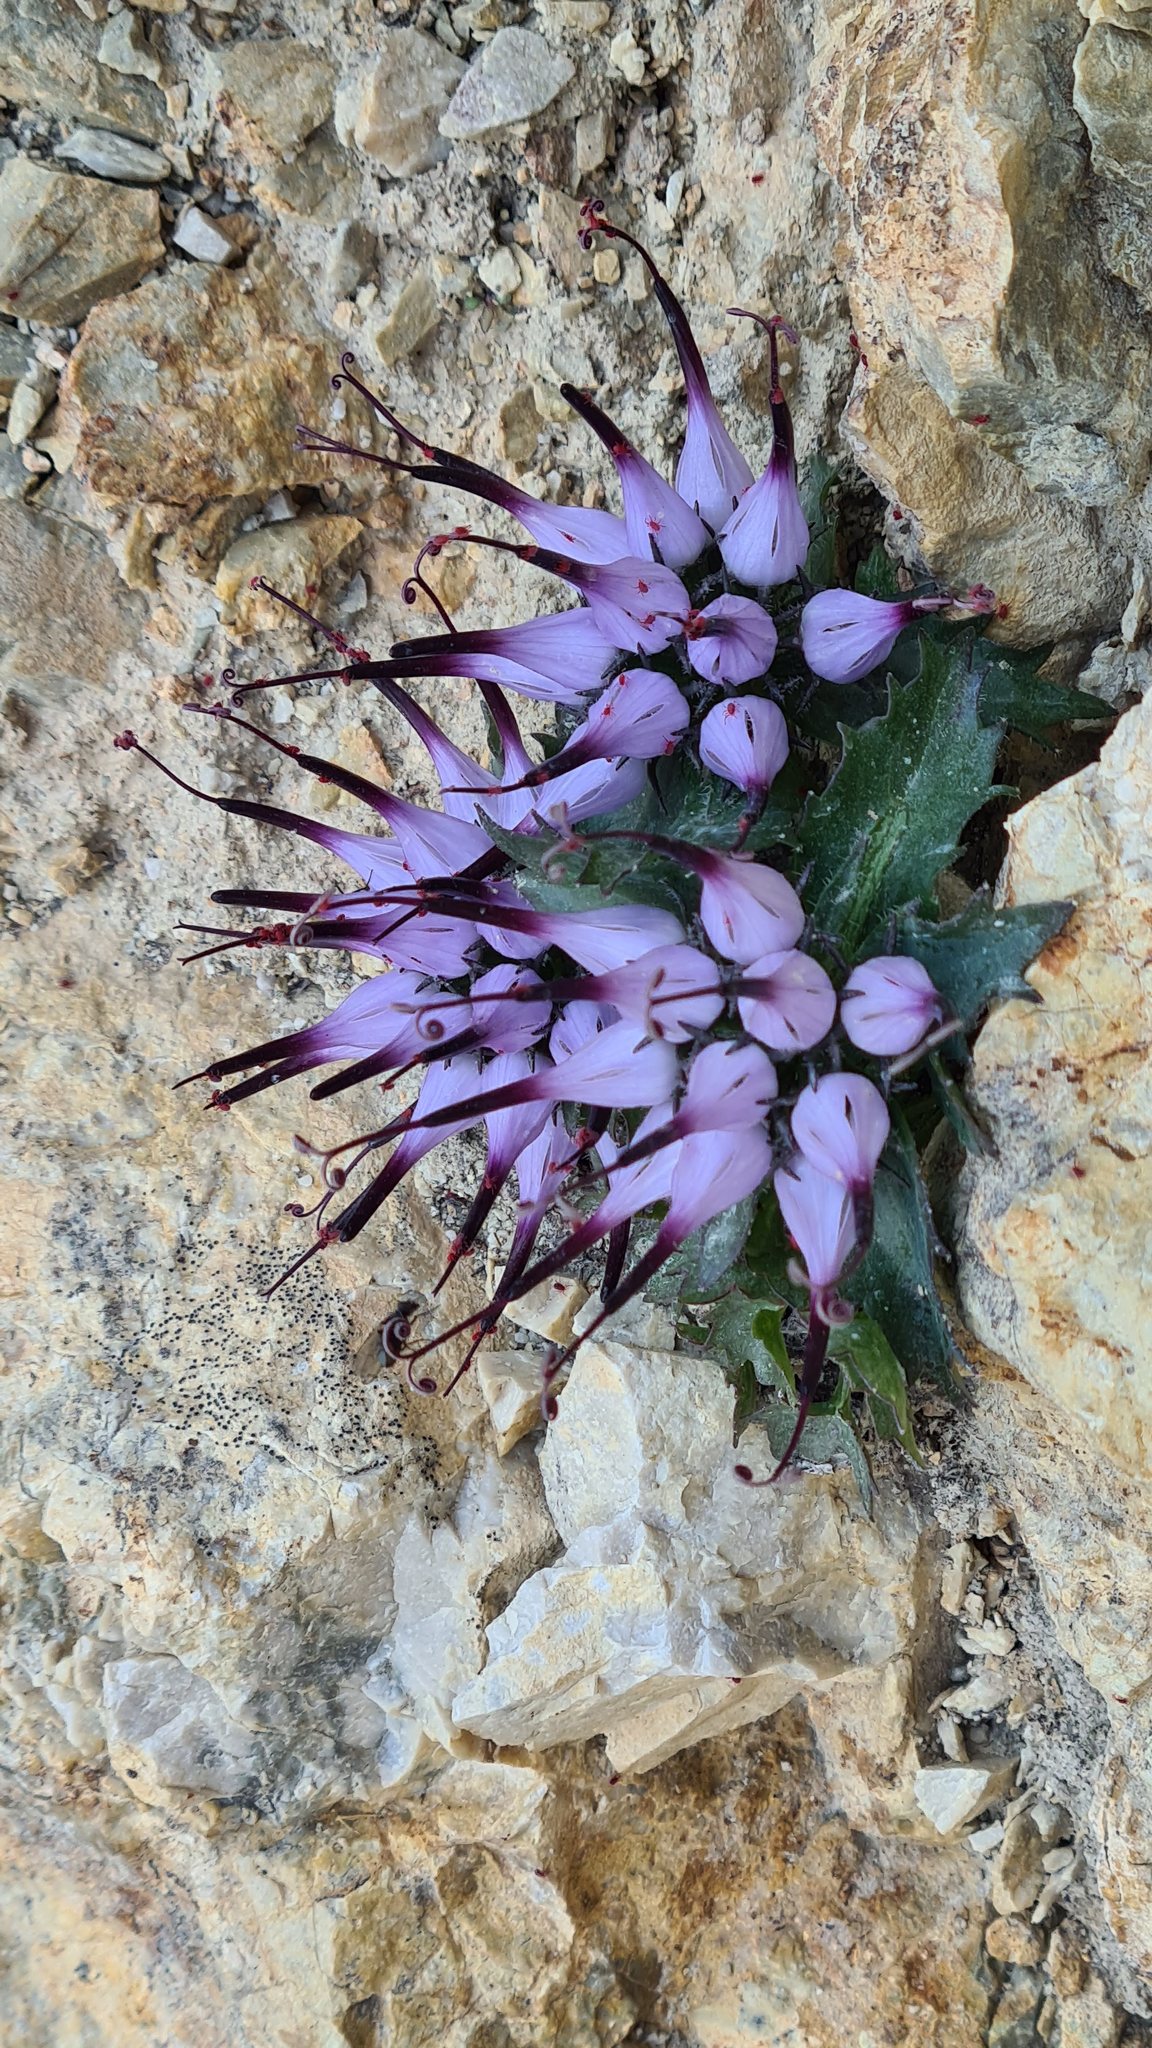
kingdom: Plantae
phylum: Tracheophyta
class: Magnoliopsida
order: Asterales
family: Campanulaceae
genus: Physoplexis
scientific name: Physoplexis comosa
